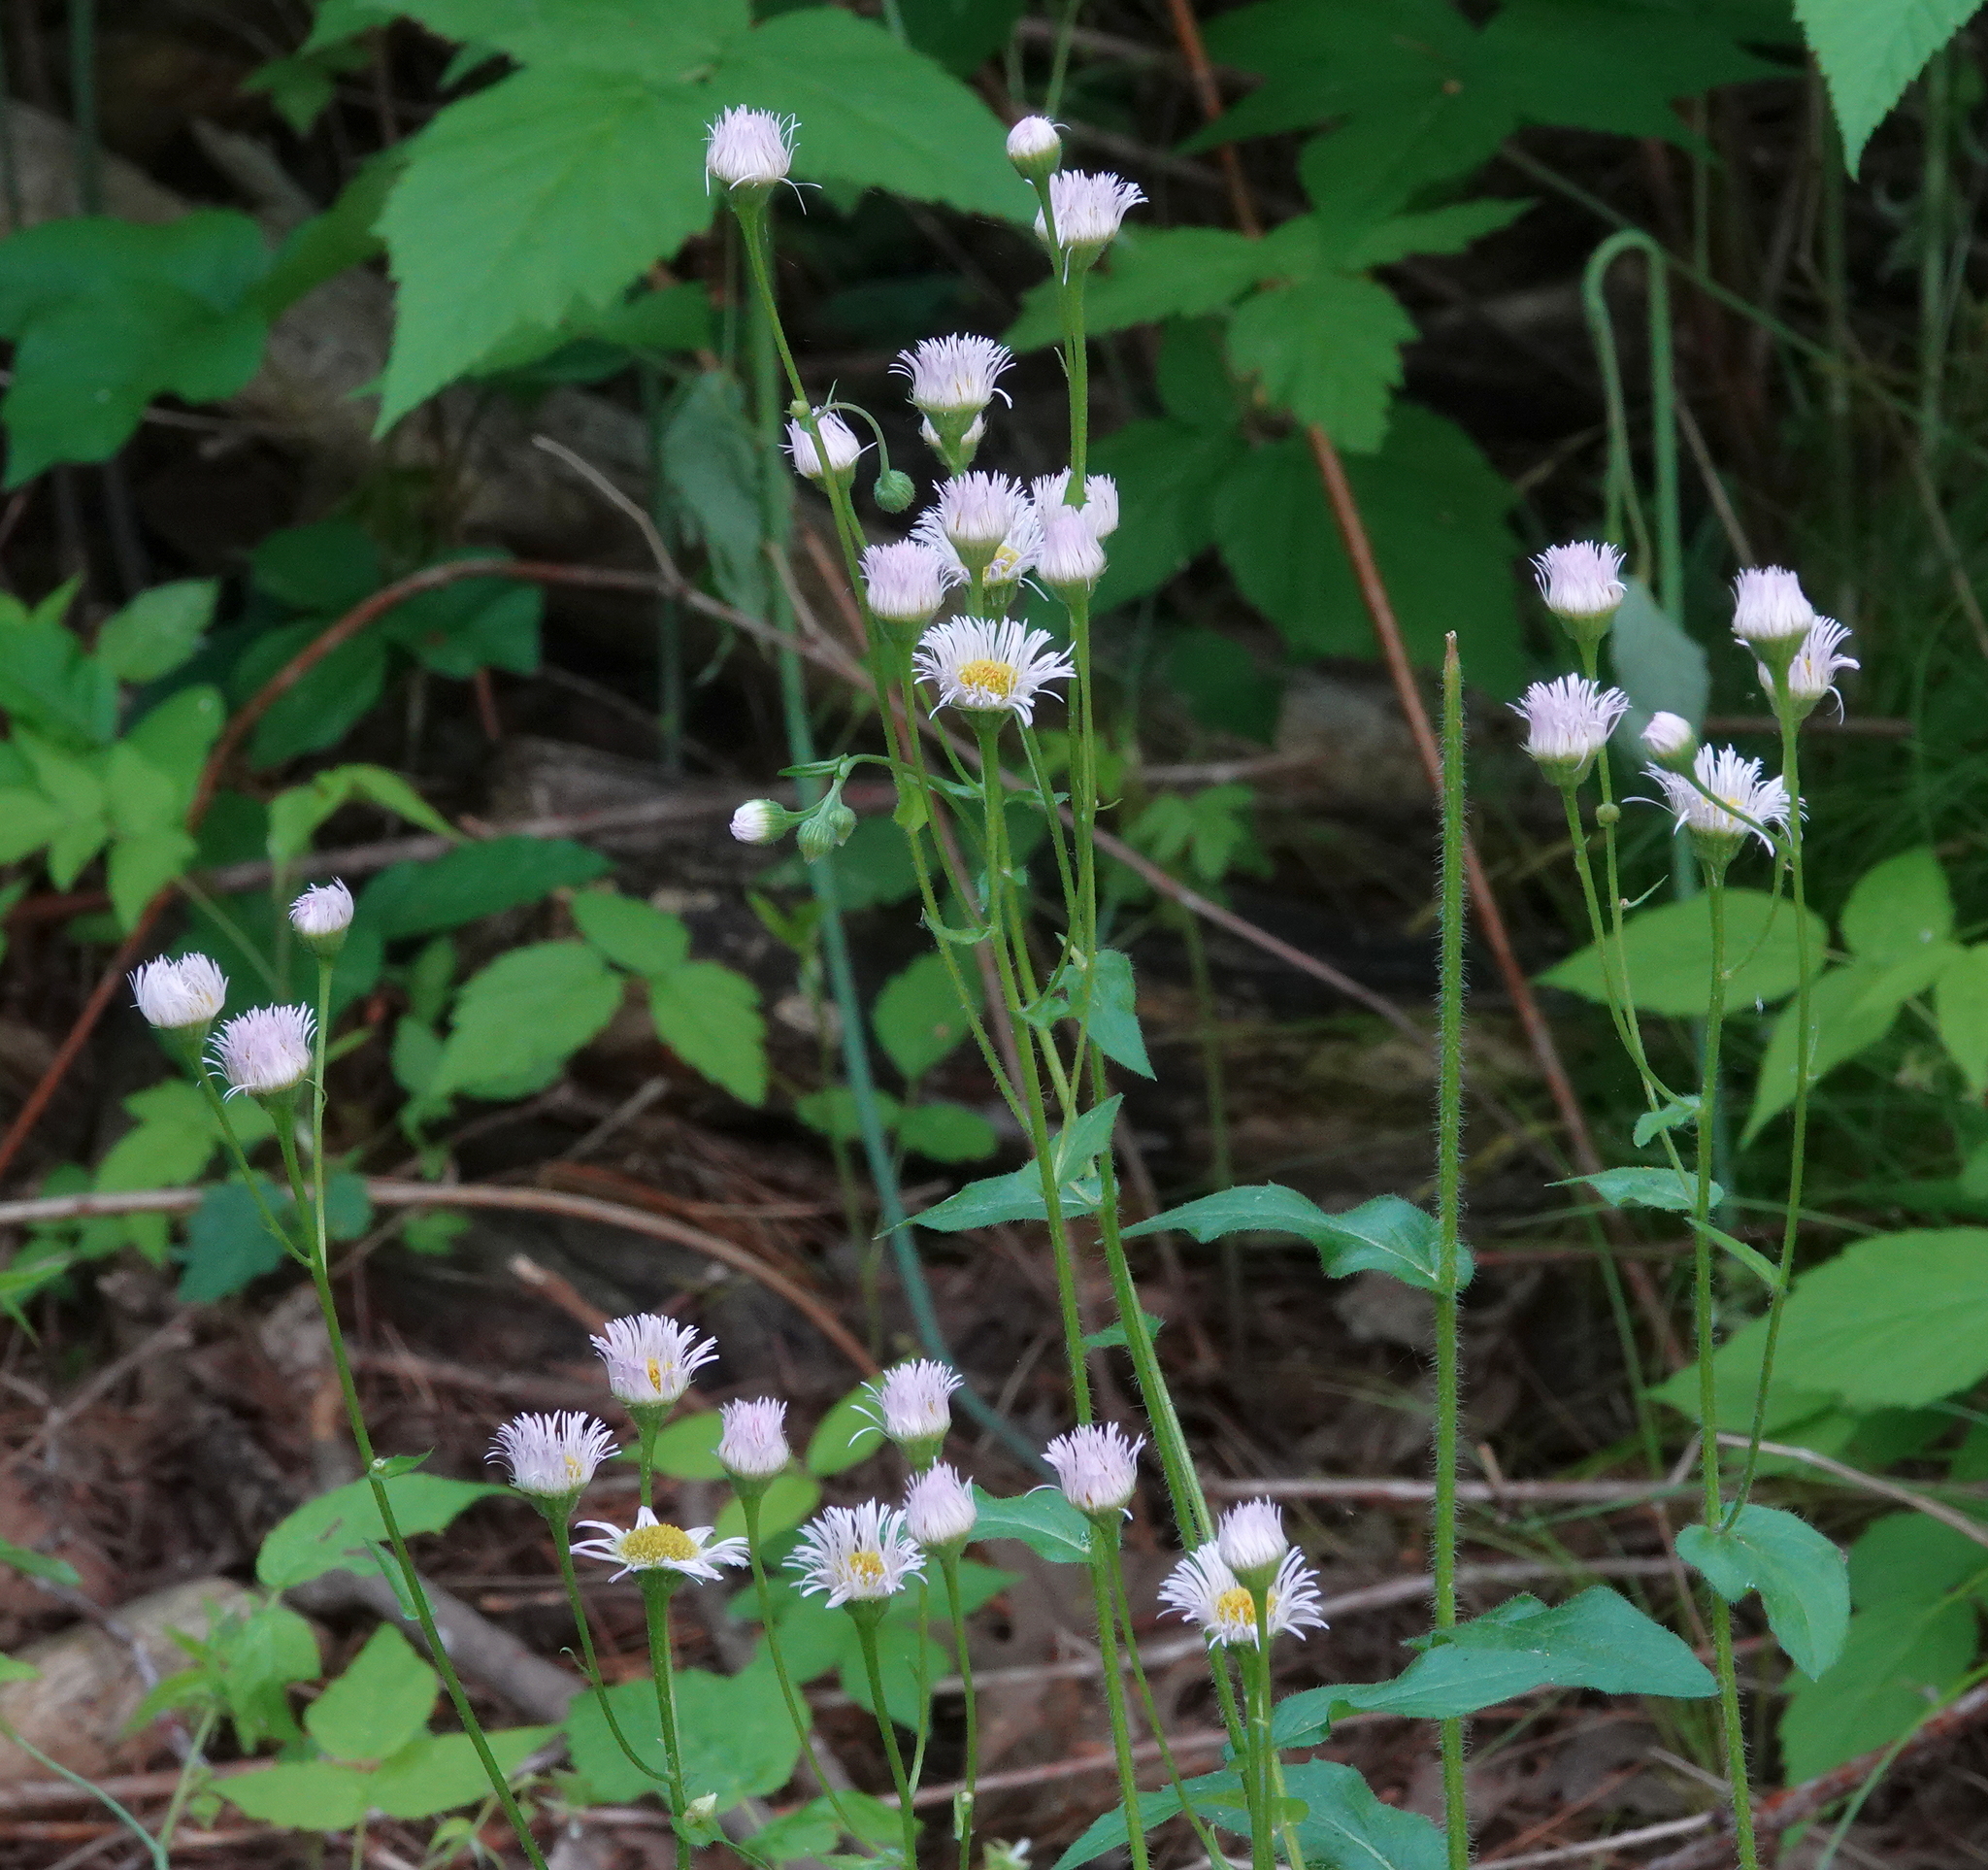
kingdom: Plantae
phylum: Tracheophyta
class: Magnoliopsida
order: Asterales
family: Asteraceae
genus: Erigeron
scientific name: Erigeron philadelphicus
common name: Robin's-plantain
